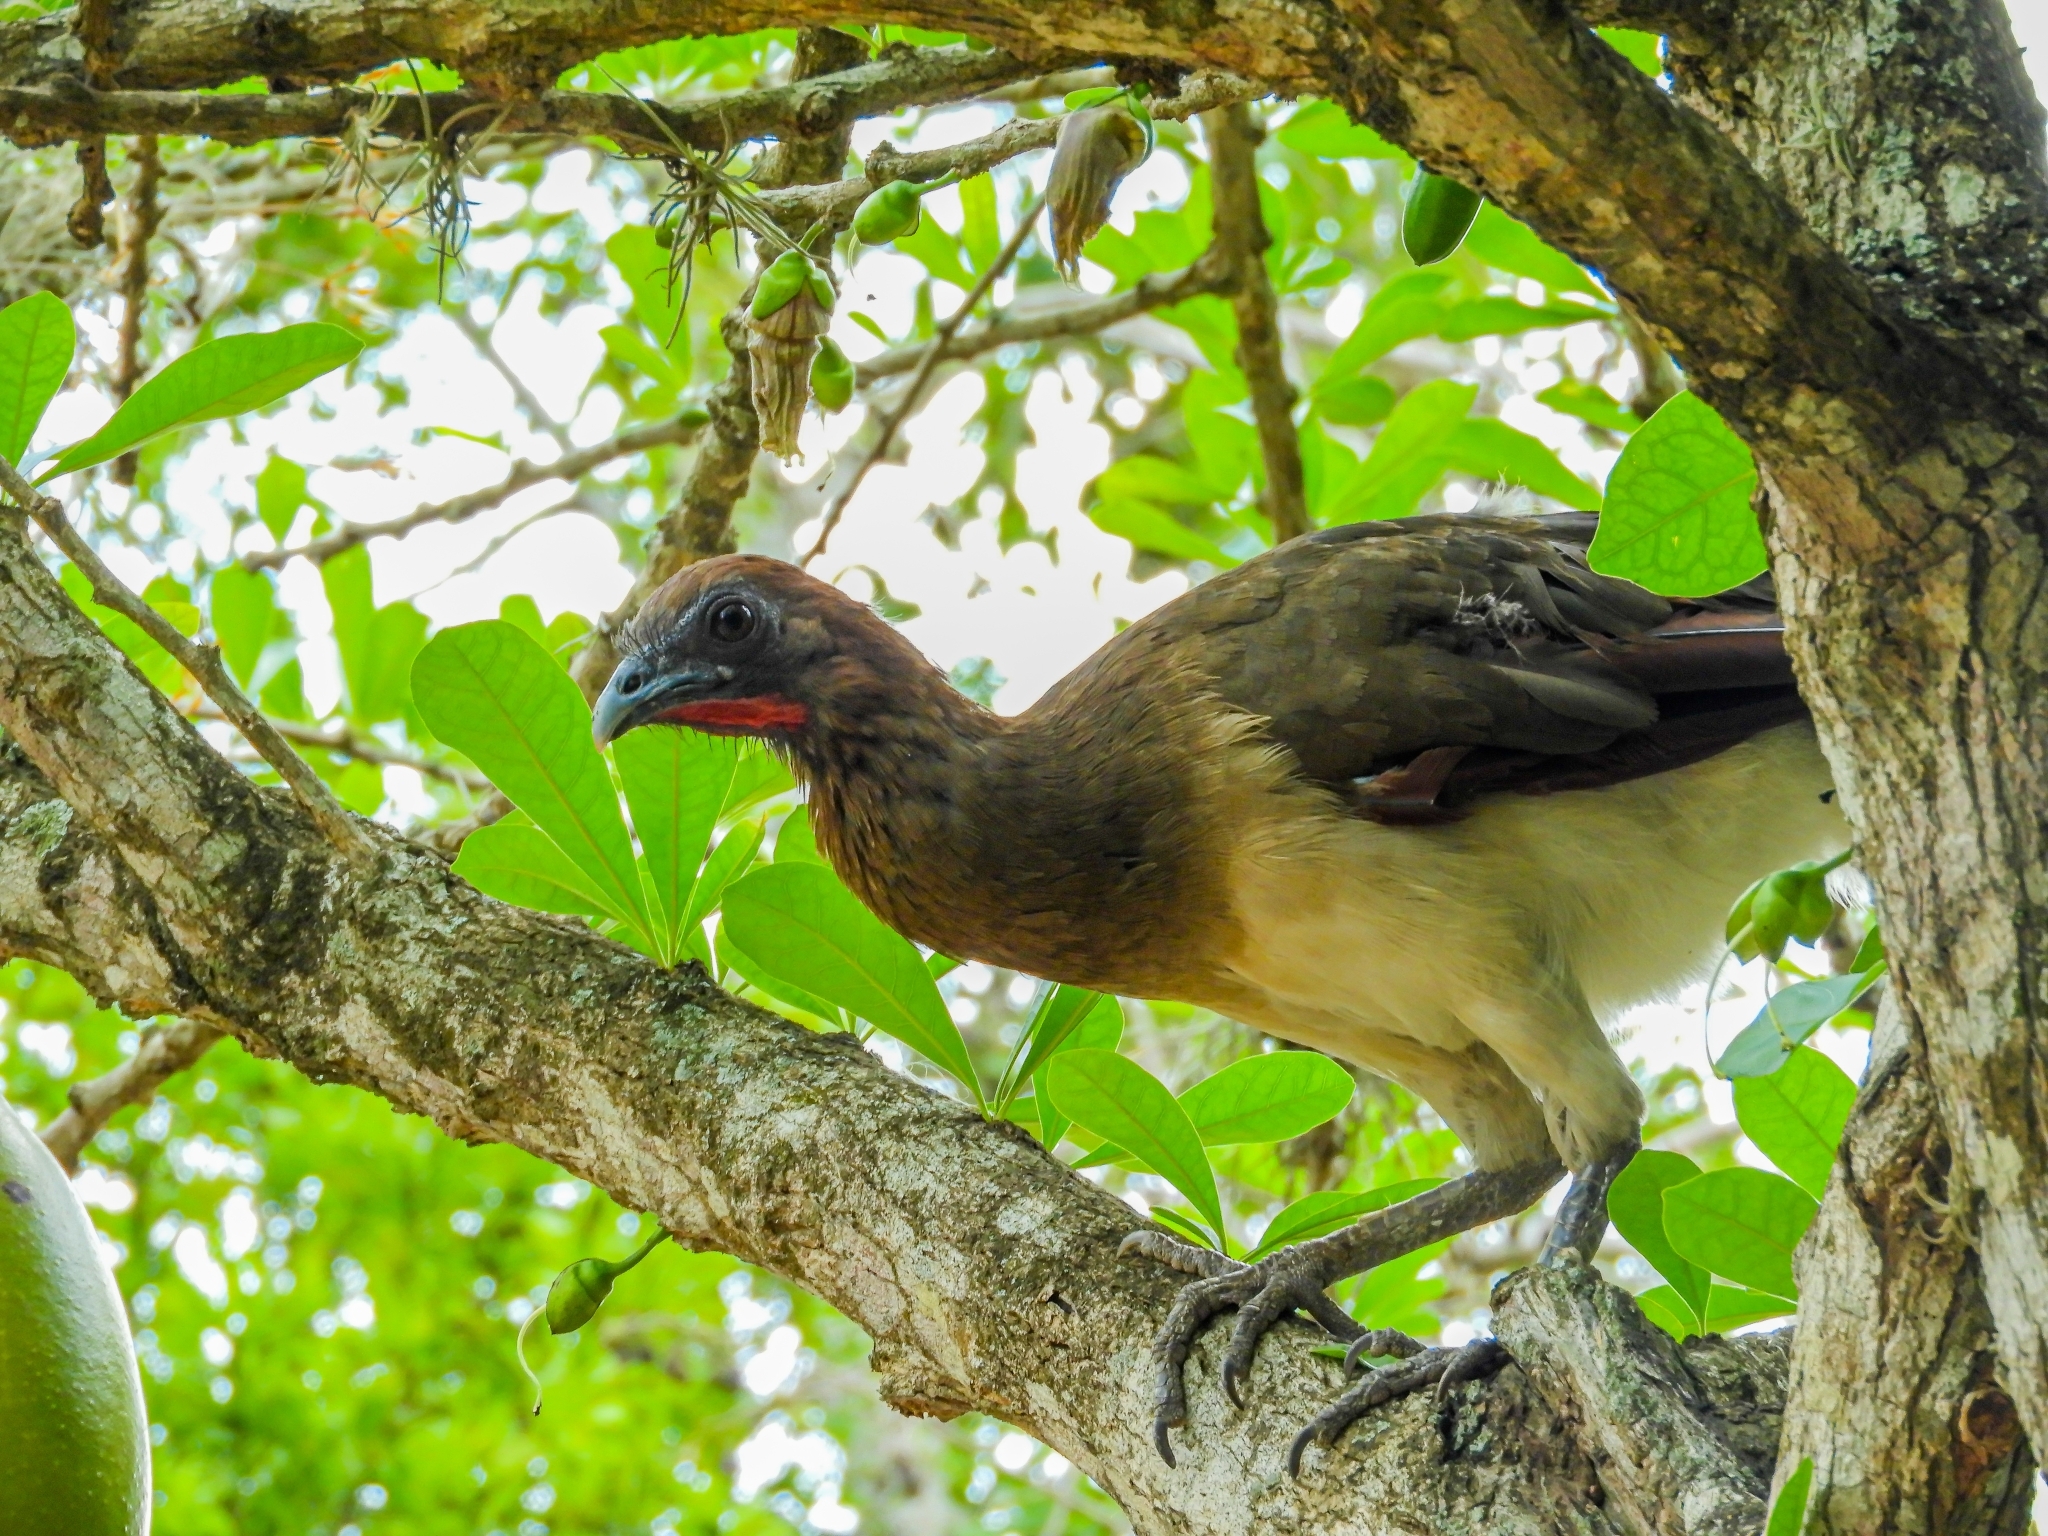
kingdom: Animalia
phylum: Chordata
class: Aves
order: Galliformes
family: Cracidae
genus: Ortalis
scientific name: Ortalis garrula
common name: Chestnut-winged chachalaca
